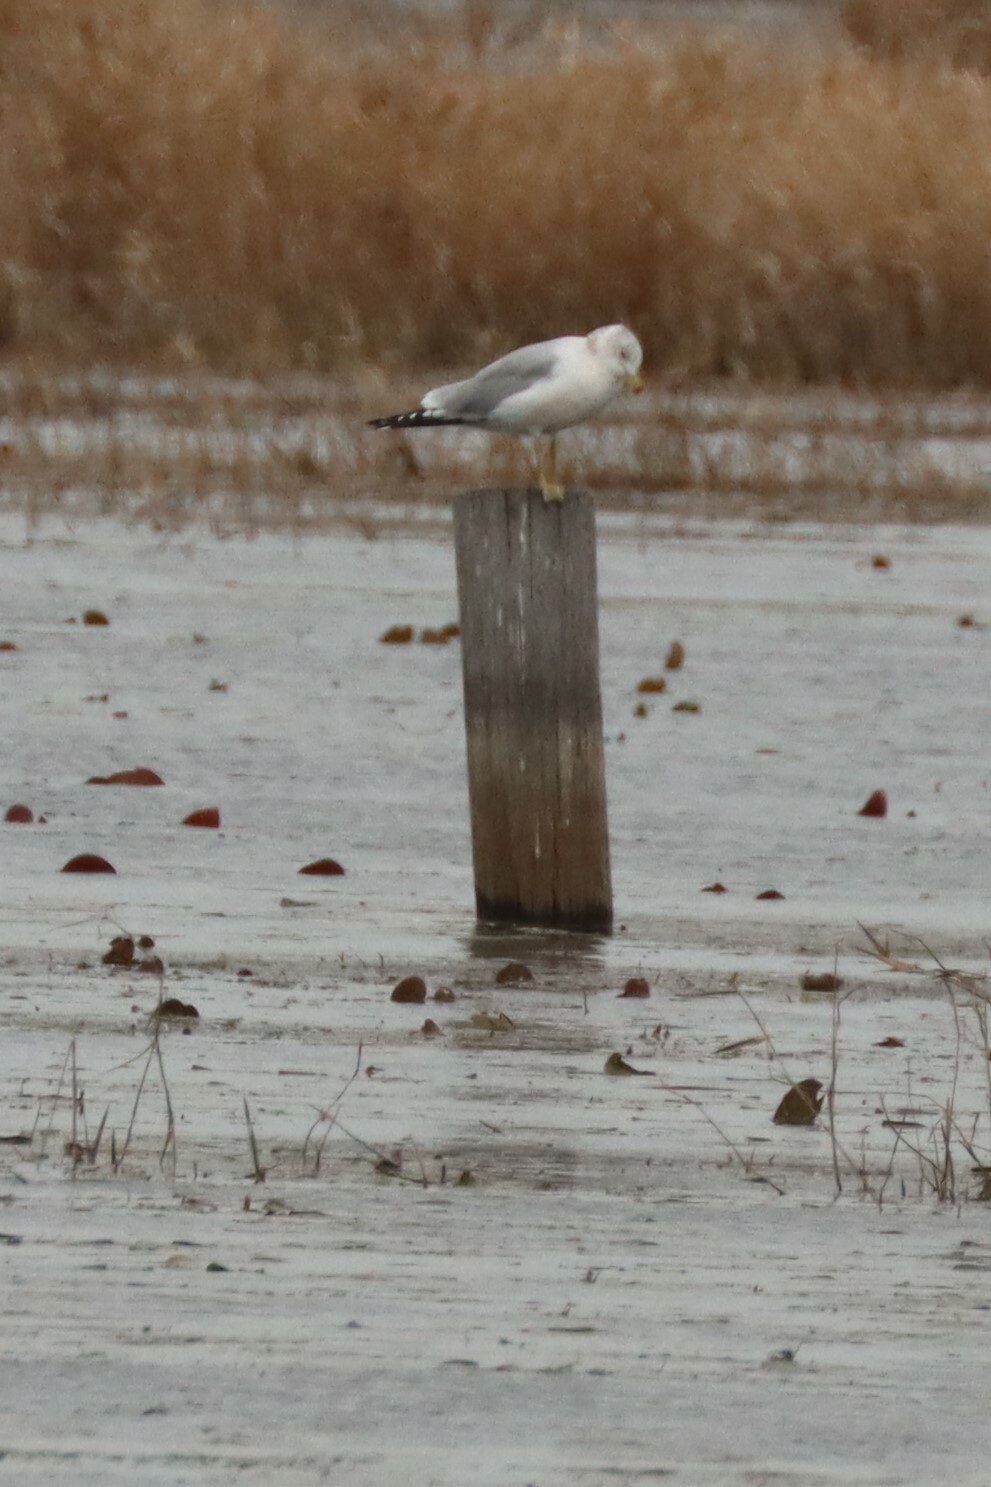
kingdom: Animalia
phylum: Chordata
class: Aves
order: Charadriiformes
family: Laridae
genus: Larus
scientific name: Larus delawarensis
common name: Ring-billed gull
